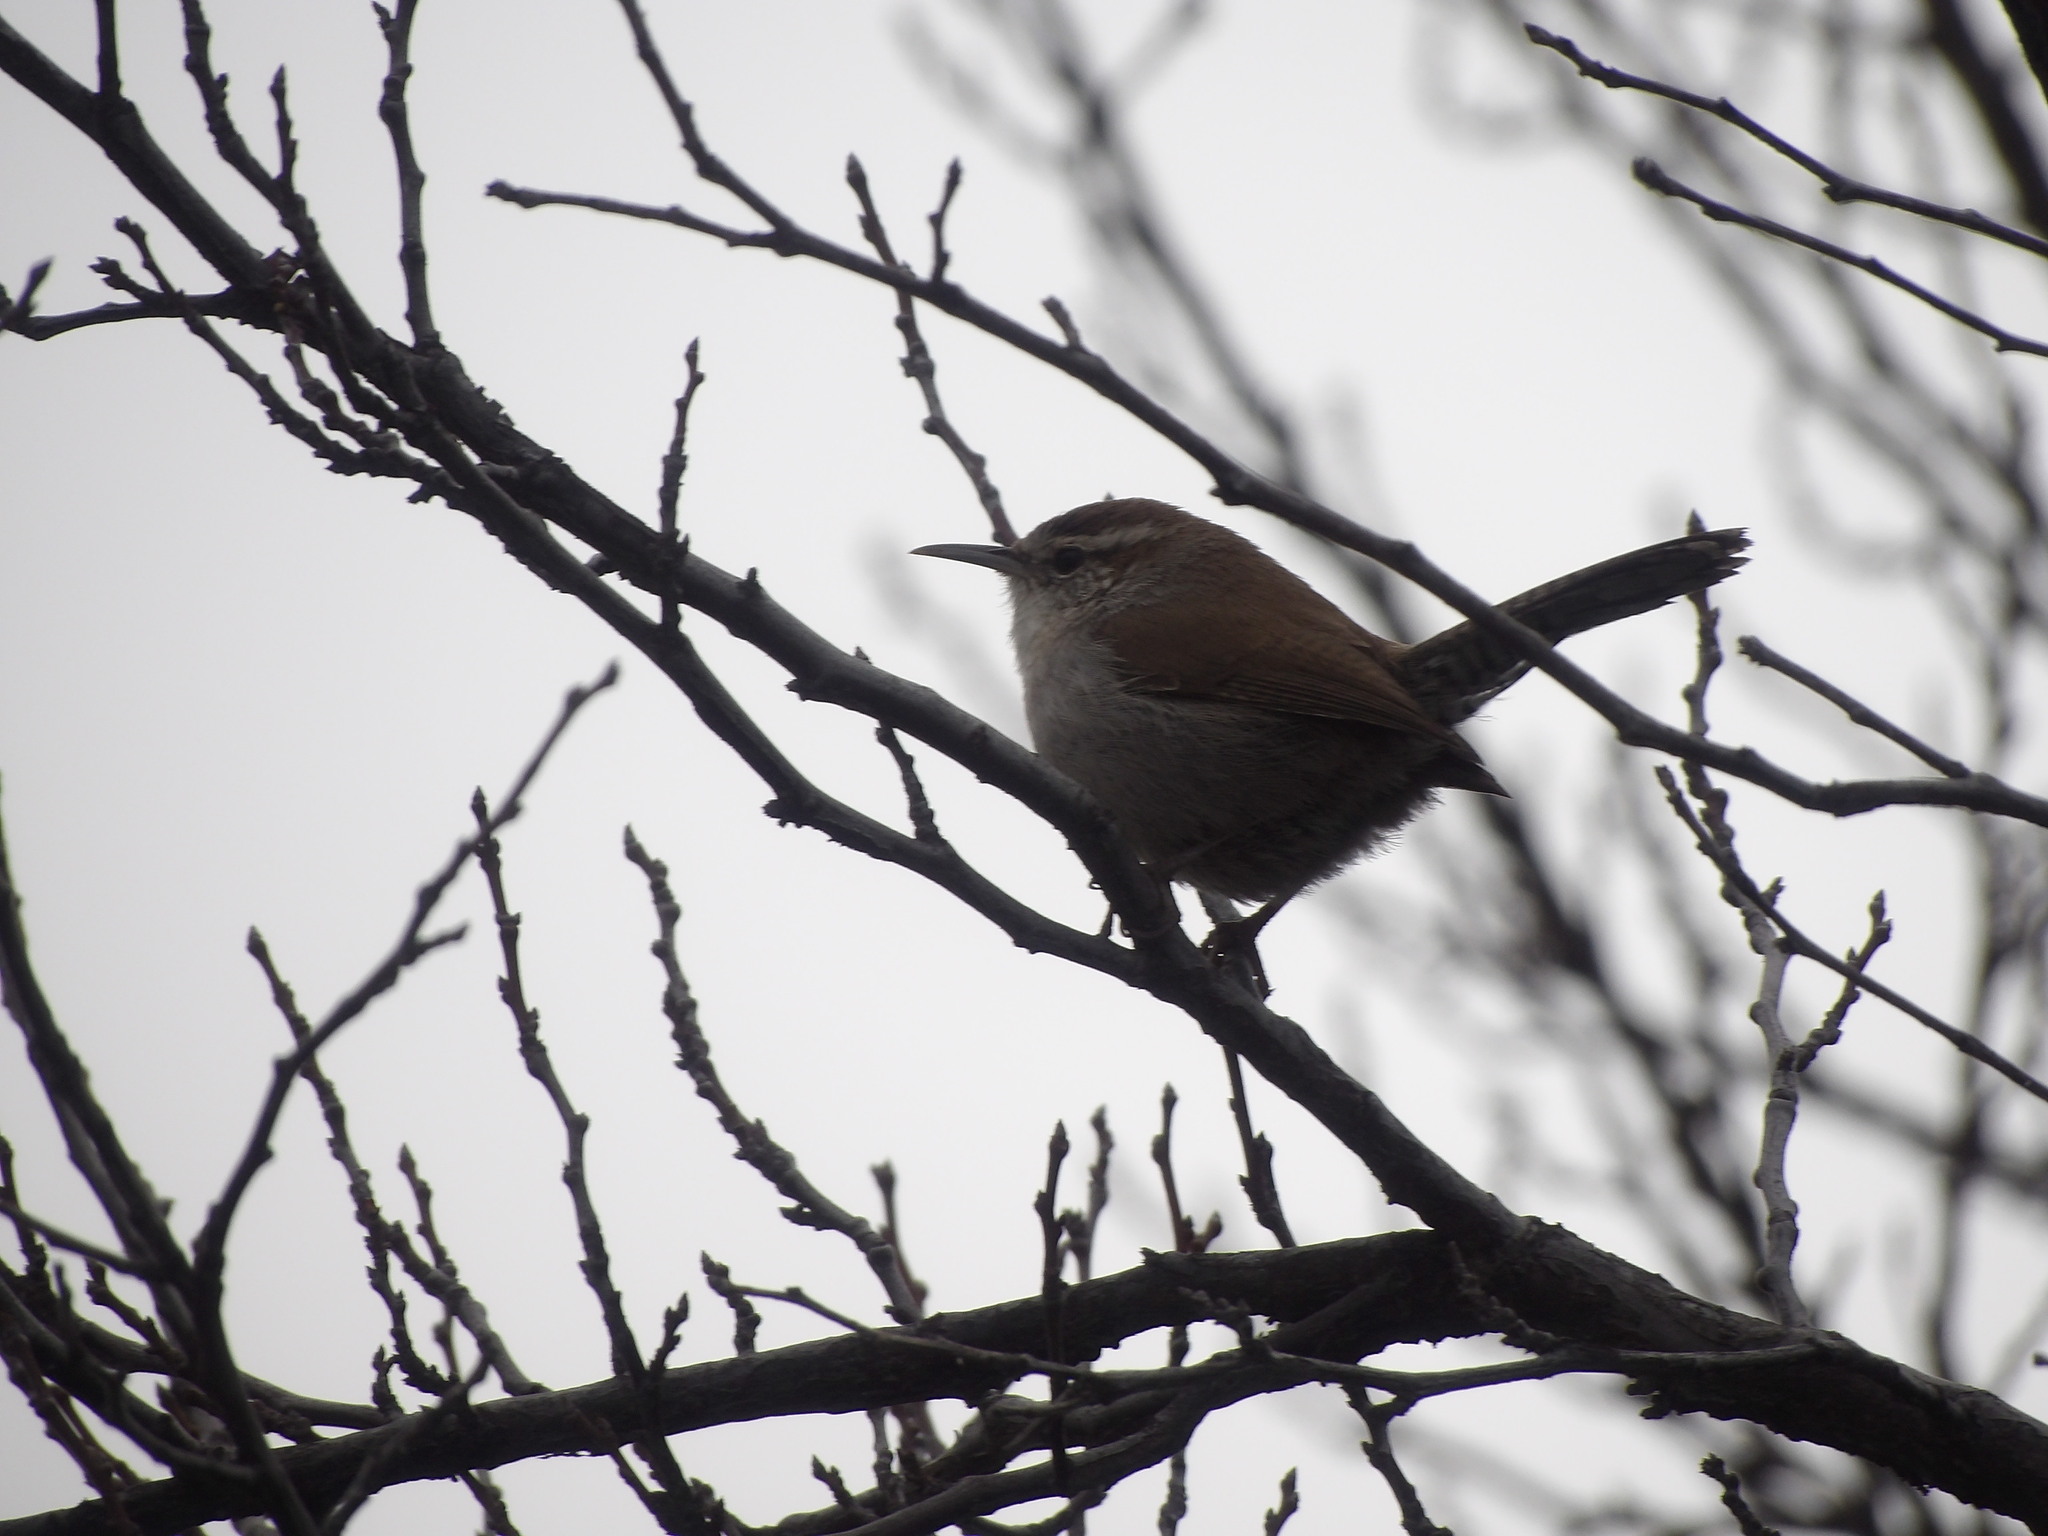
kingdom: Animalia
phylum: Chordata
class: Aves
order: Passeriformes
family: Troglodytidae
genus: Thryomanes
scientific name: Thryomanes bewickii
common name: Bewick's wren
